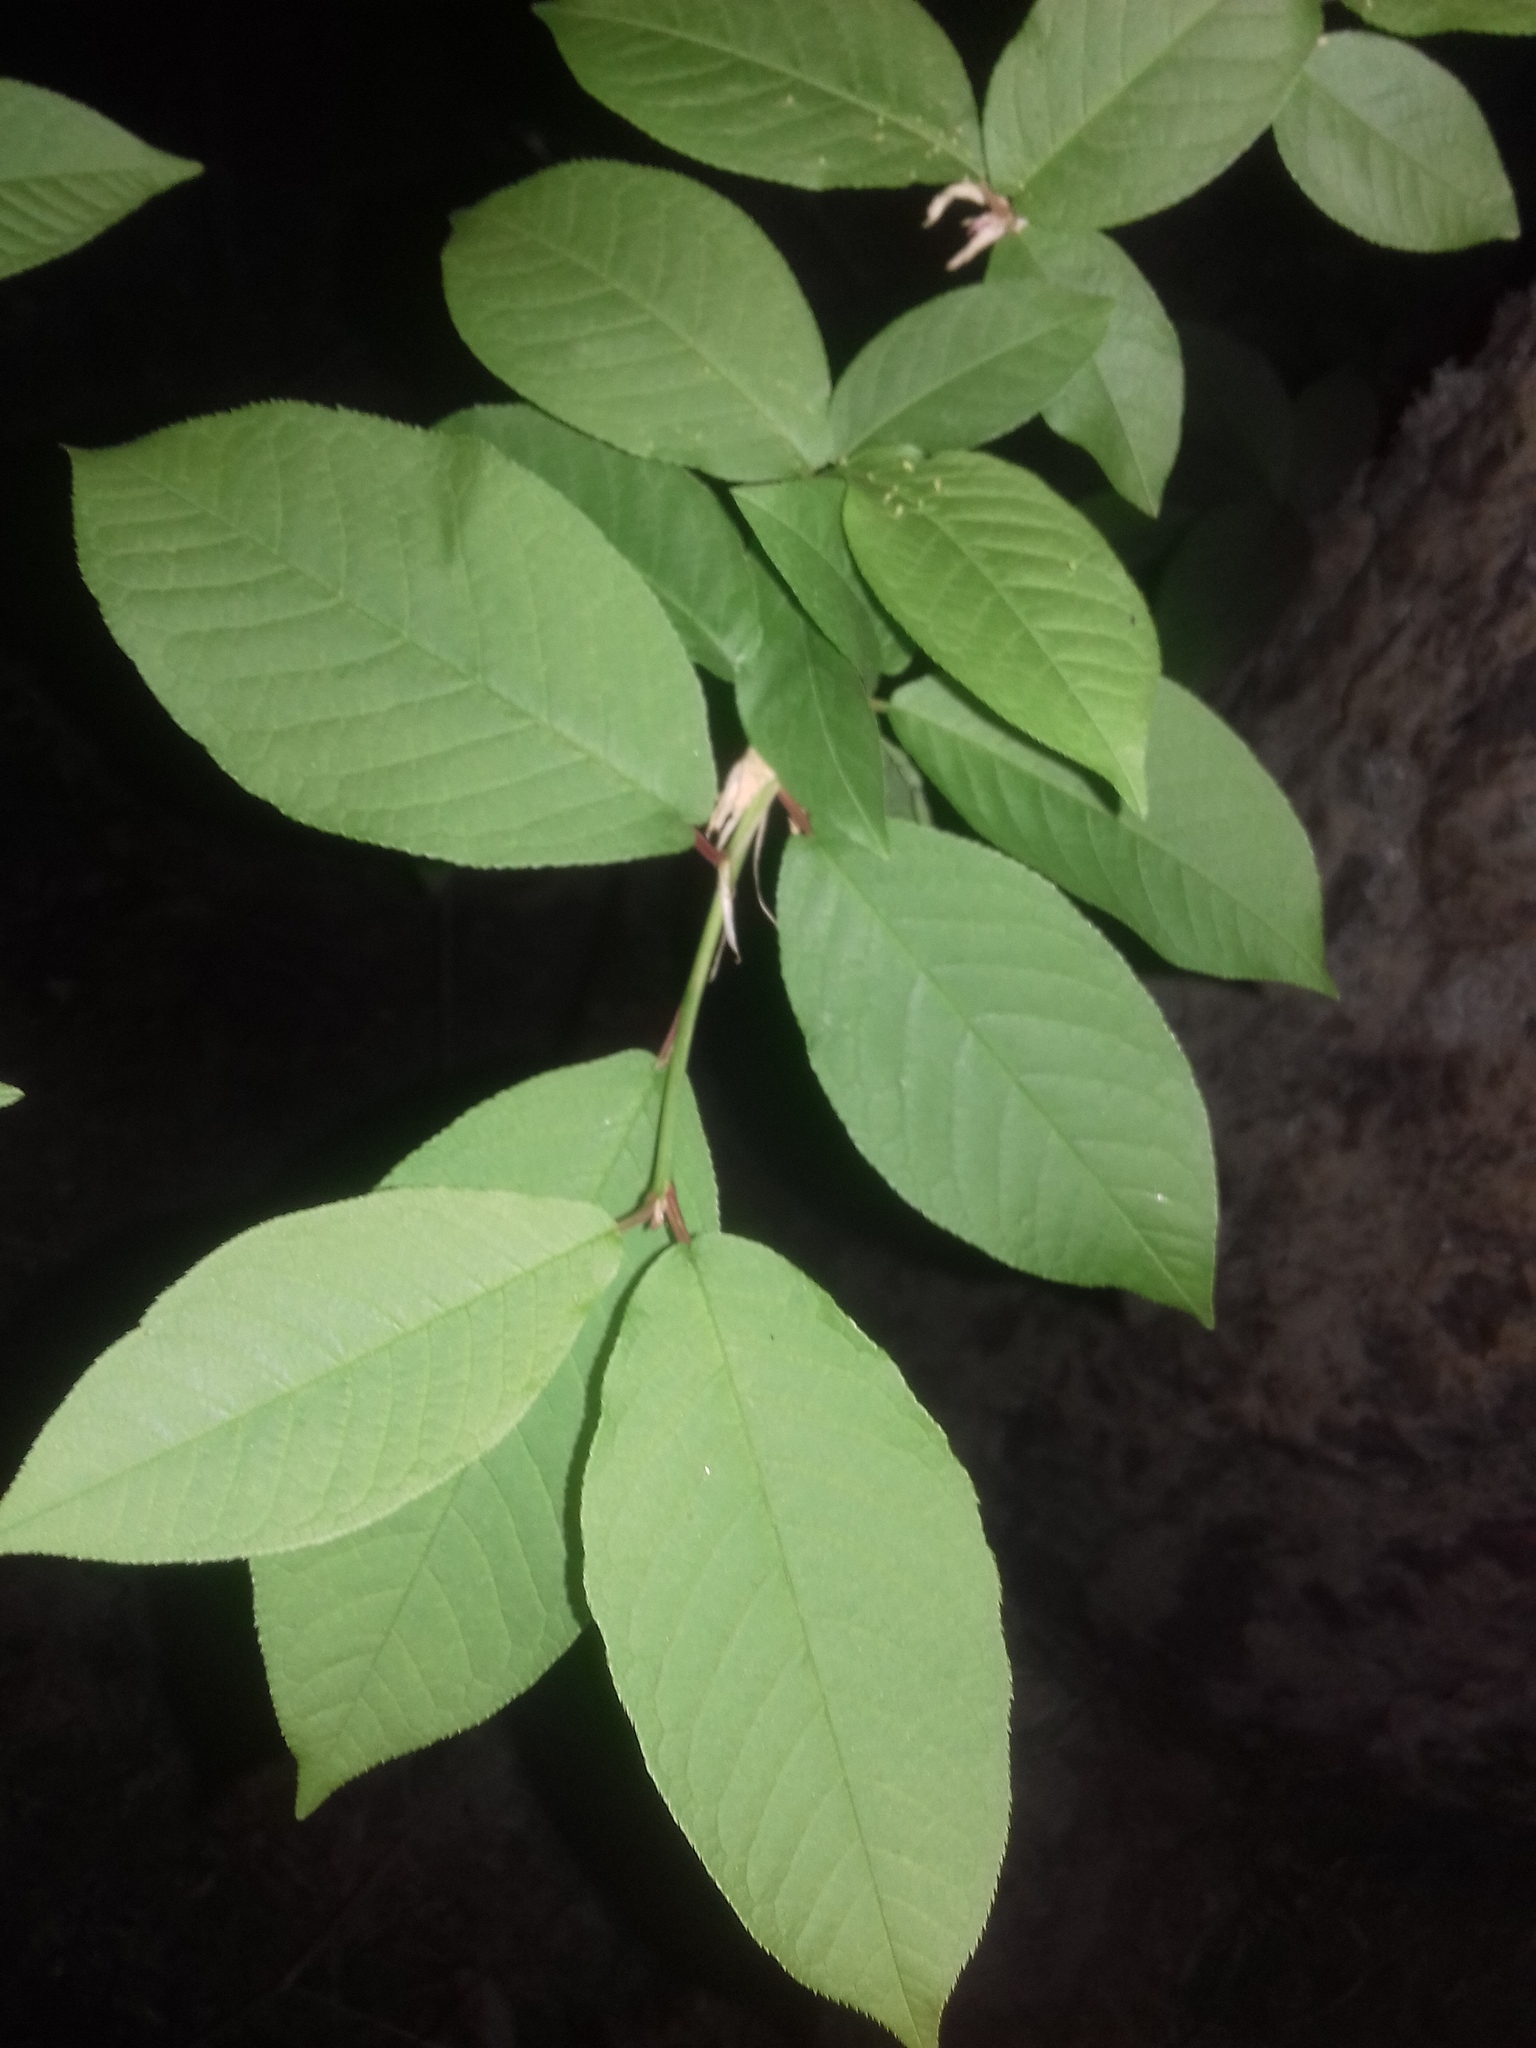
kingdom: Plantae
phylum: Tracheophyta
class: Magnoliopsida
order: Rosales
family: Rosaceae
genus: Prunus
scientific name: Prunus padus
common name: Bird cherry
